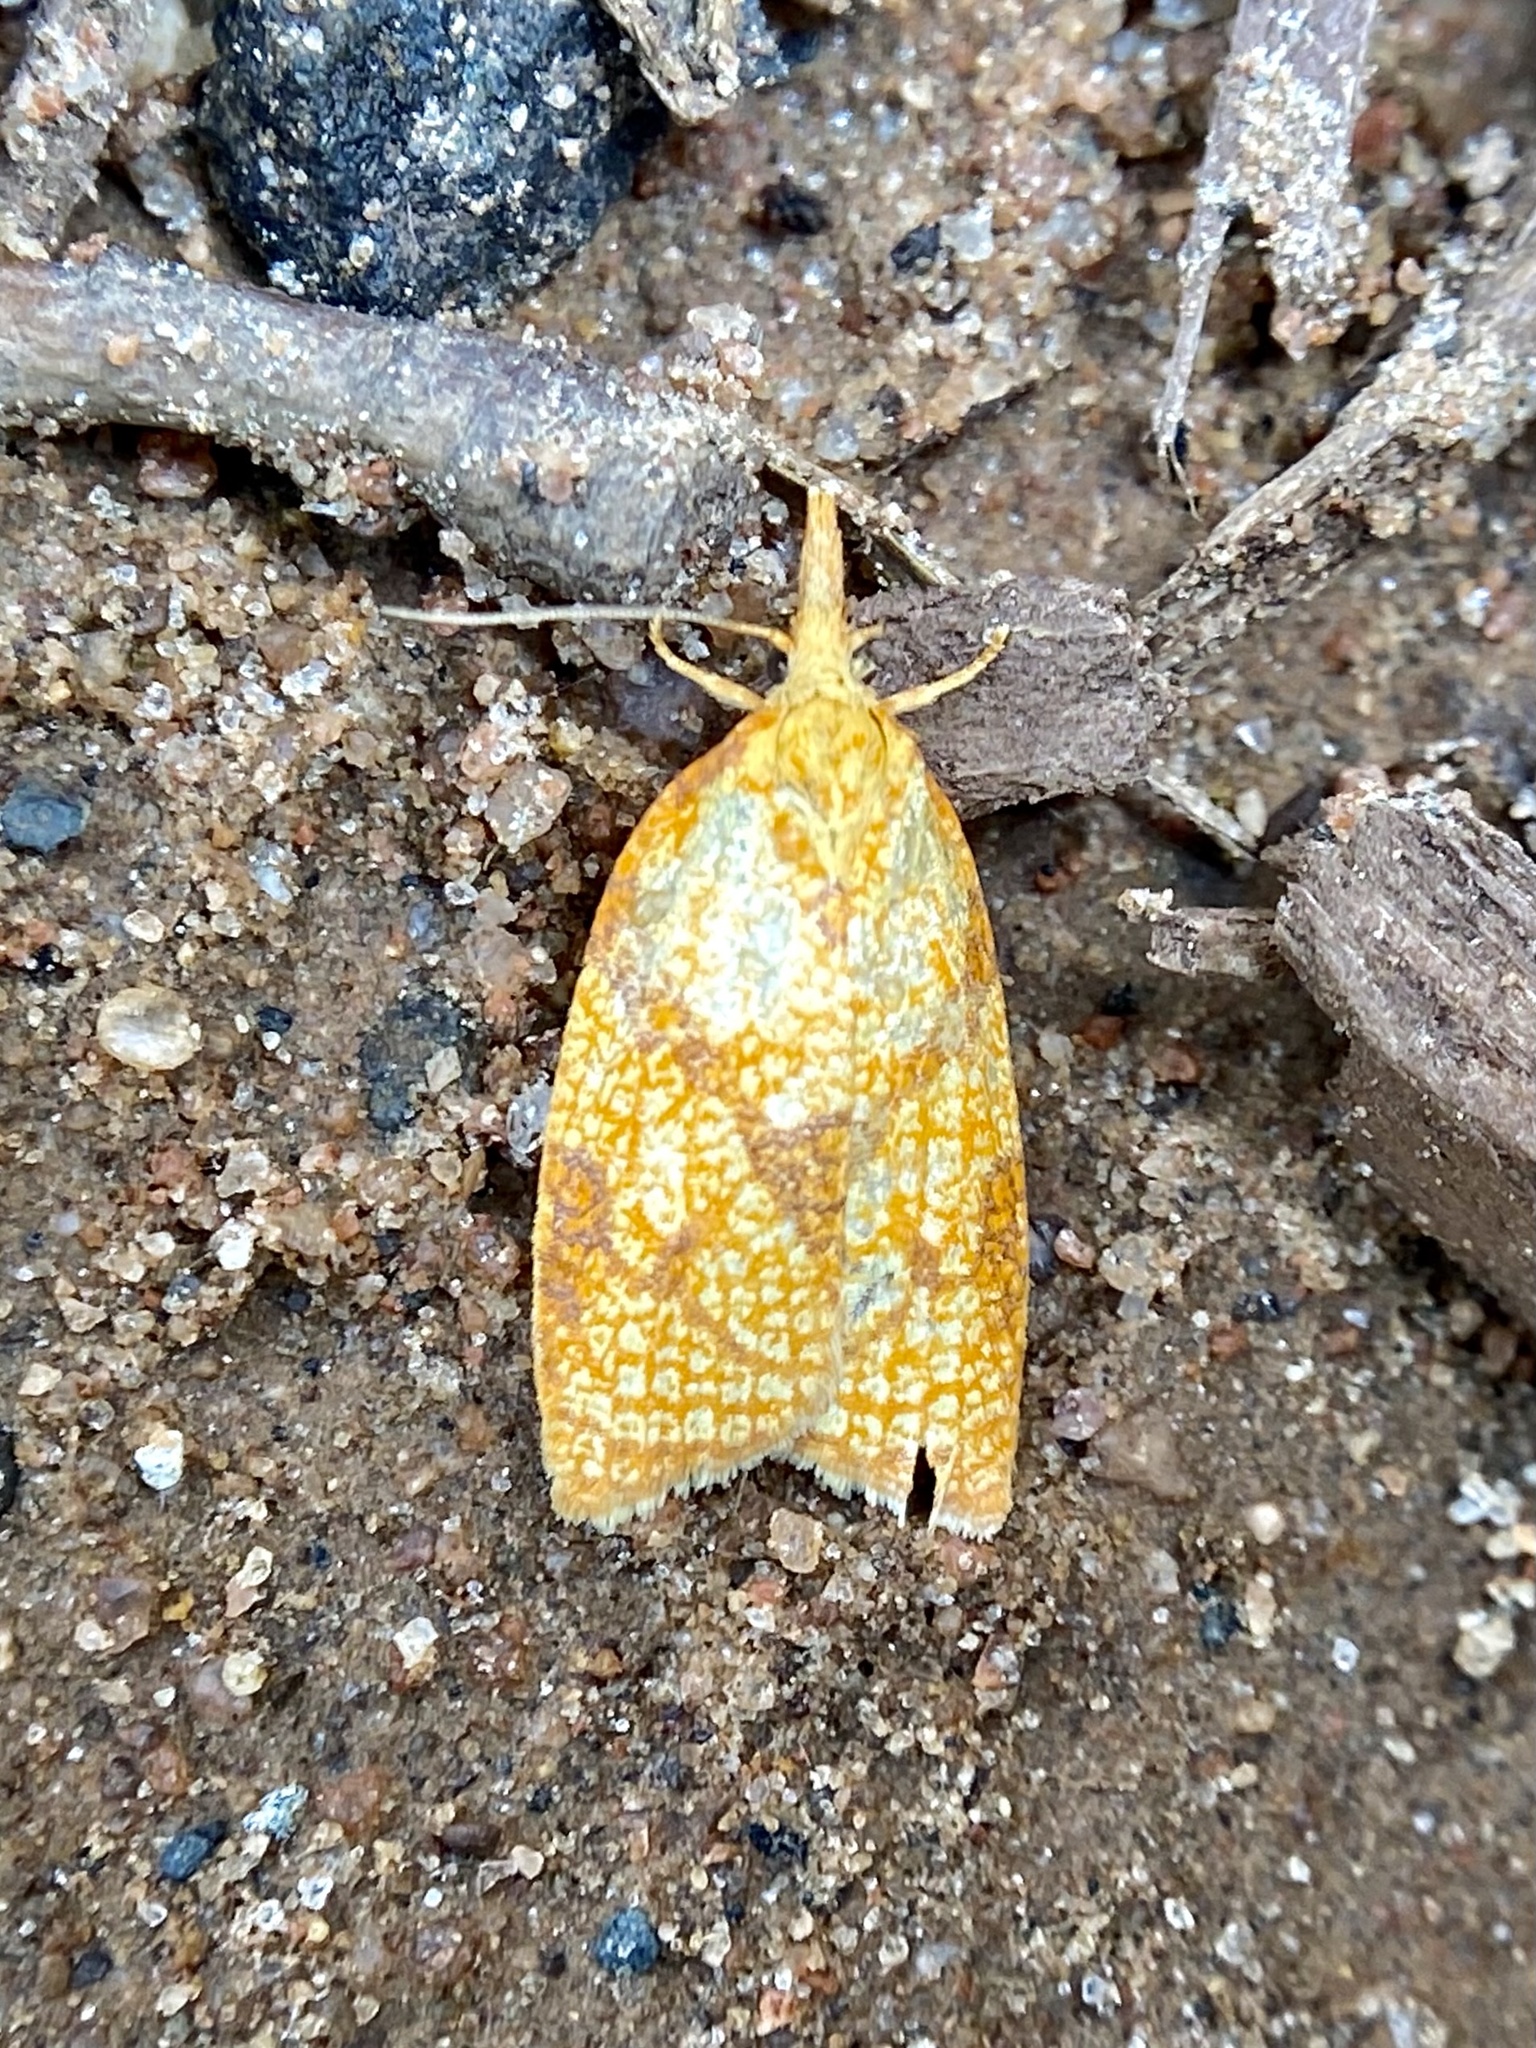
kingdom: Animalia
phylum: Arthropoda
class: Insecta
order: Lepidoptera
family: Tortricidae
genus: Cenopis
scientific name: Cenopis reticulatana
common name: Reticulated fruitworm moth
